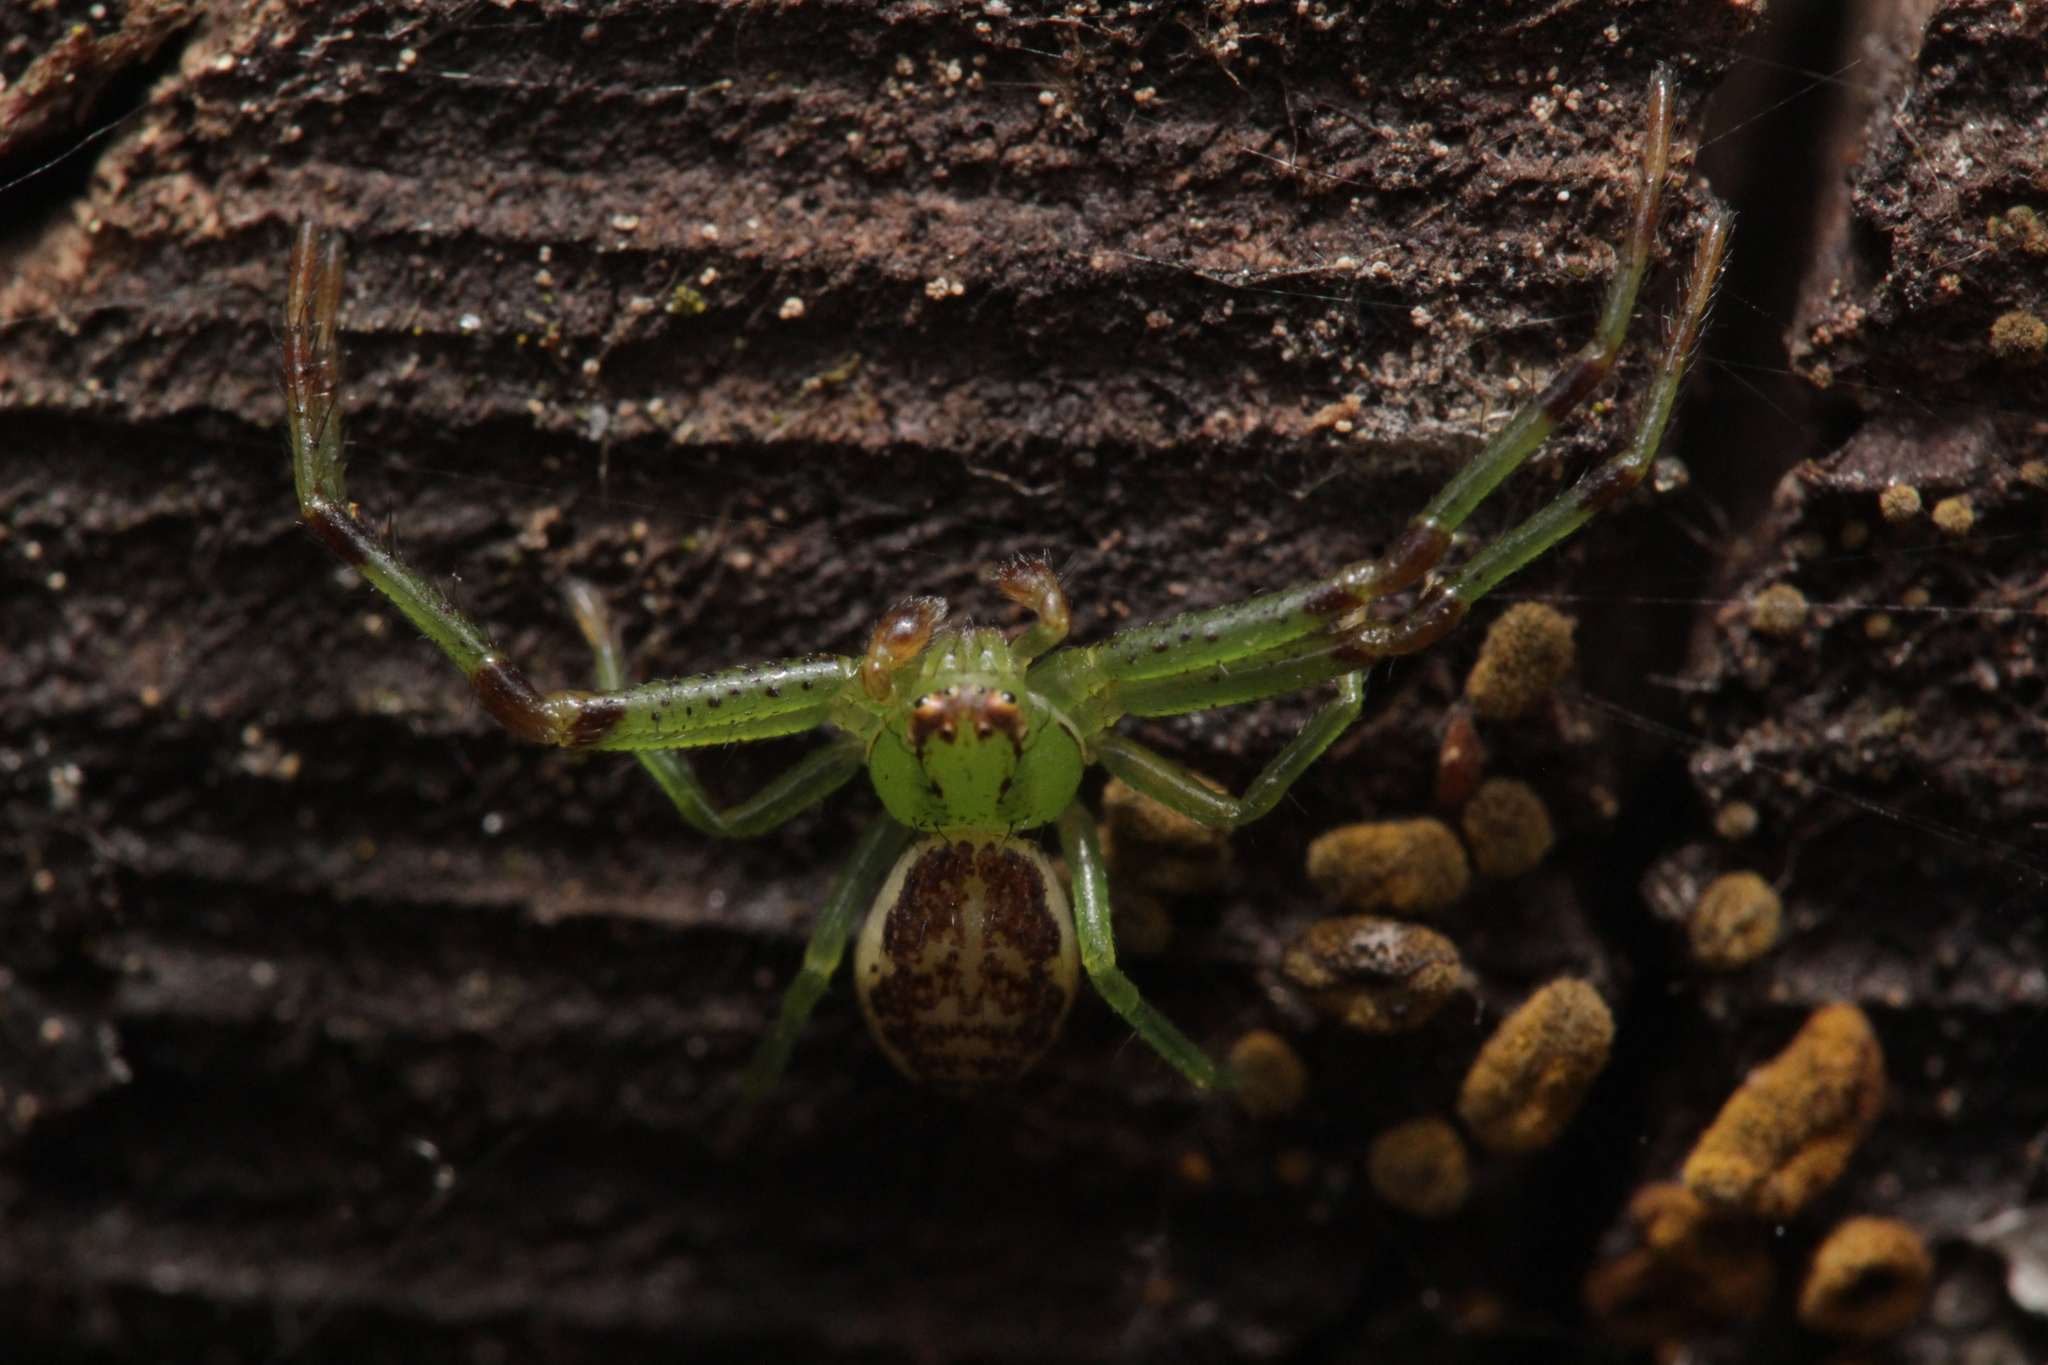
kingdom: Animalia
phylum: Arthropoda
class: Arachnida
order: Araneae
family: Thomisidae
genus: Diaea
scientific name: Diaea dorsata
